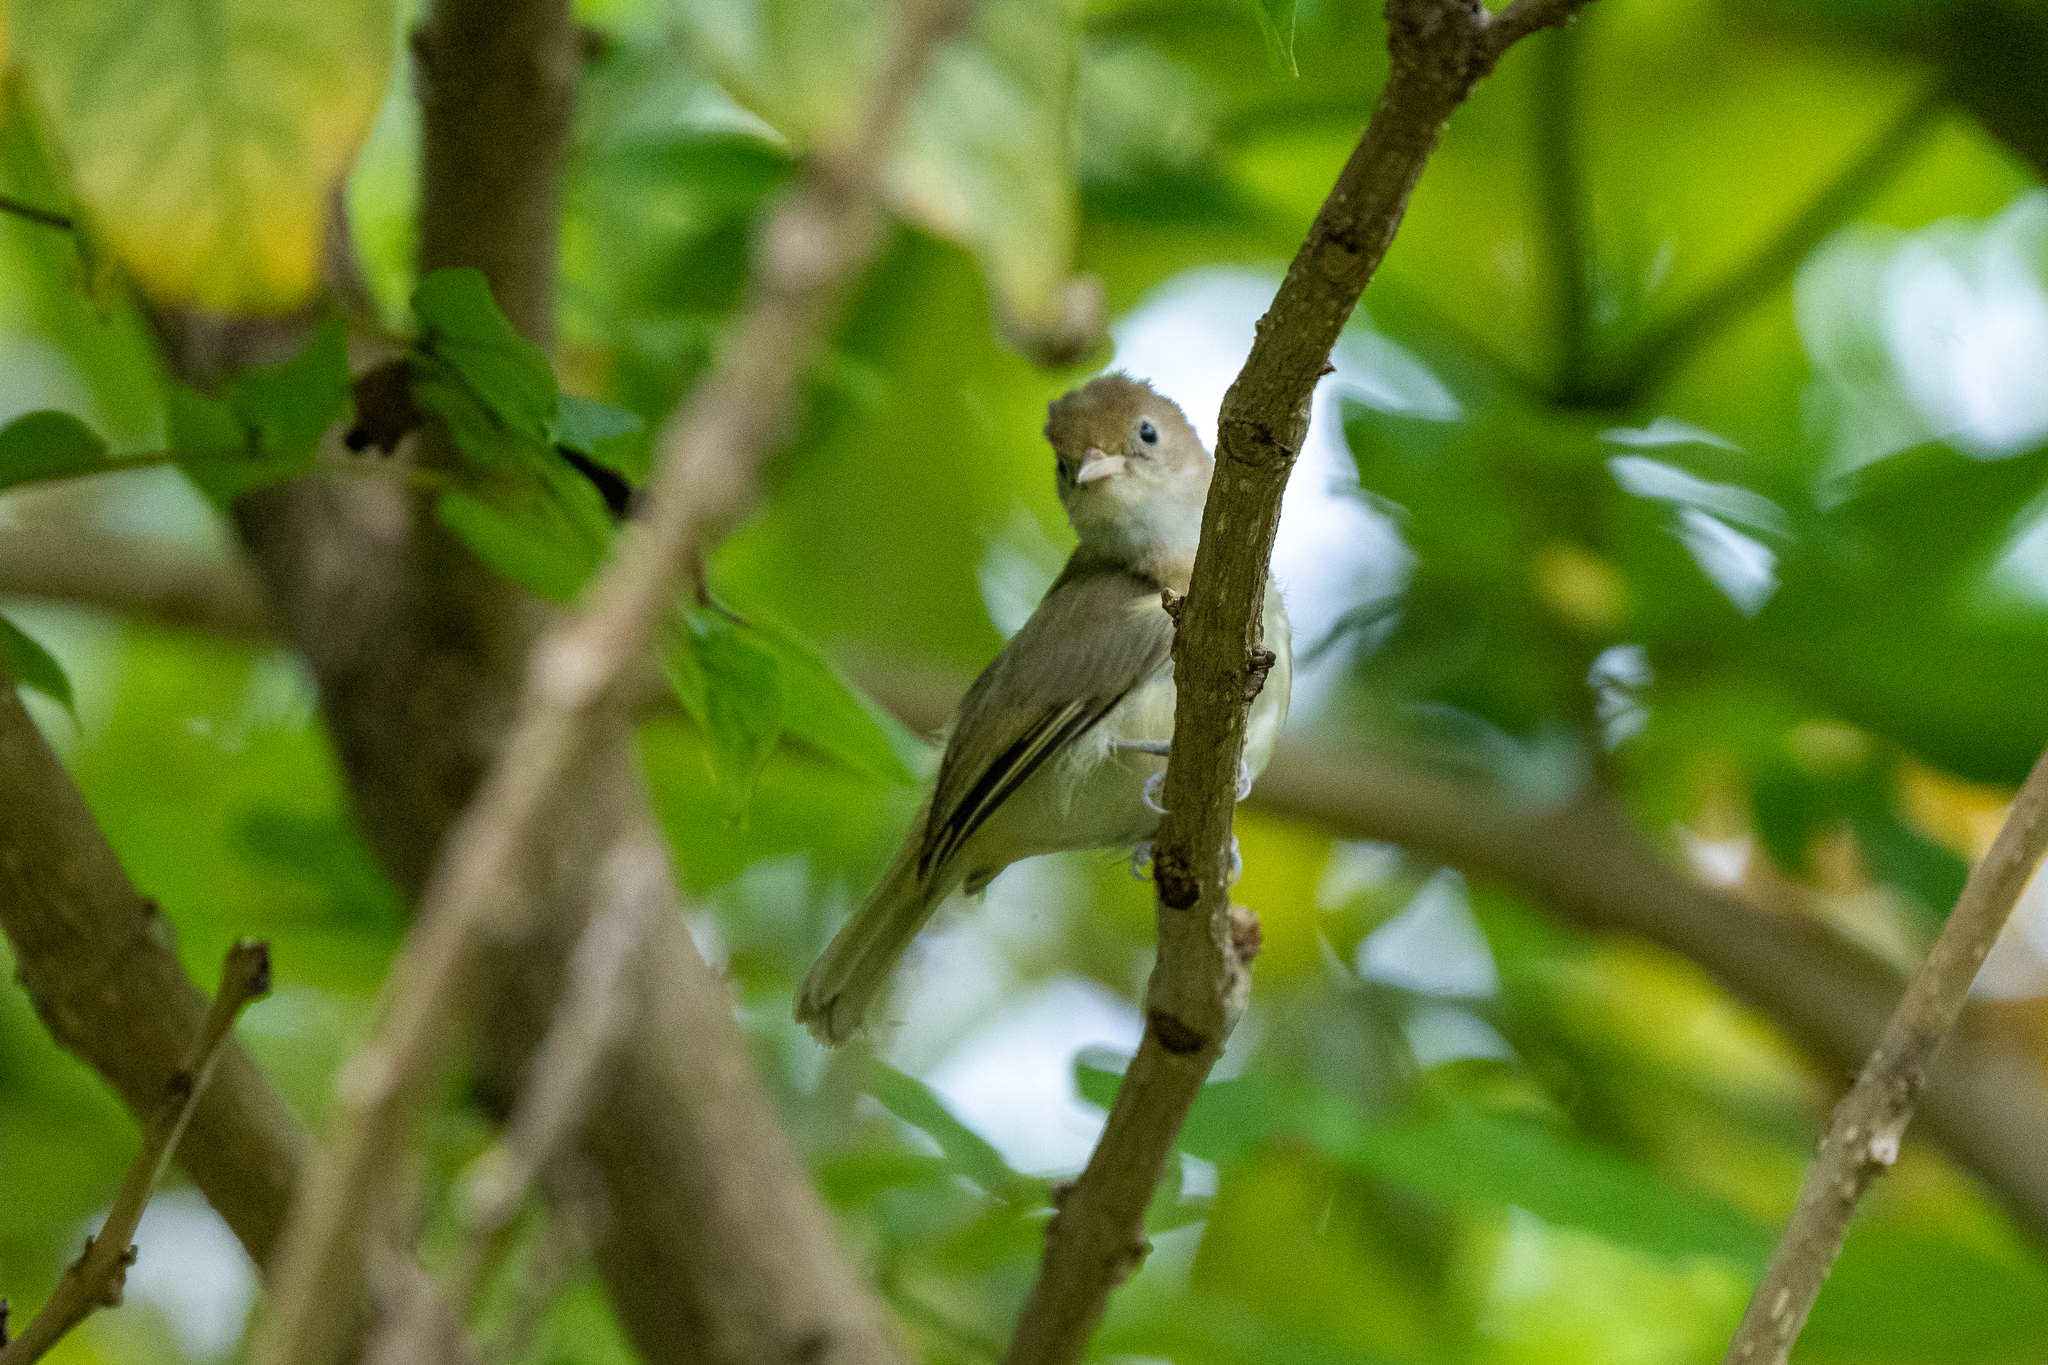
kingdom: Animalia
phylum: Chordata
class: Aves
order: Passeriformes
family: Vireonidae
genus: Hylophilus
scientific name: Hylophilus aurantiifrons
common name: Golden-fronted greenlet
